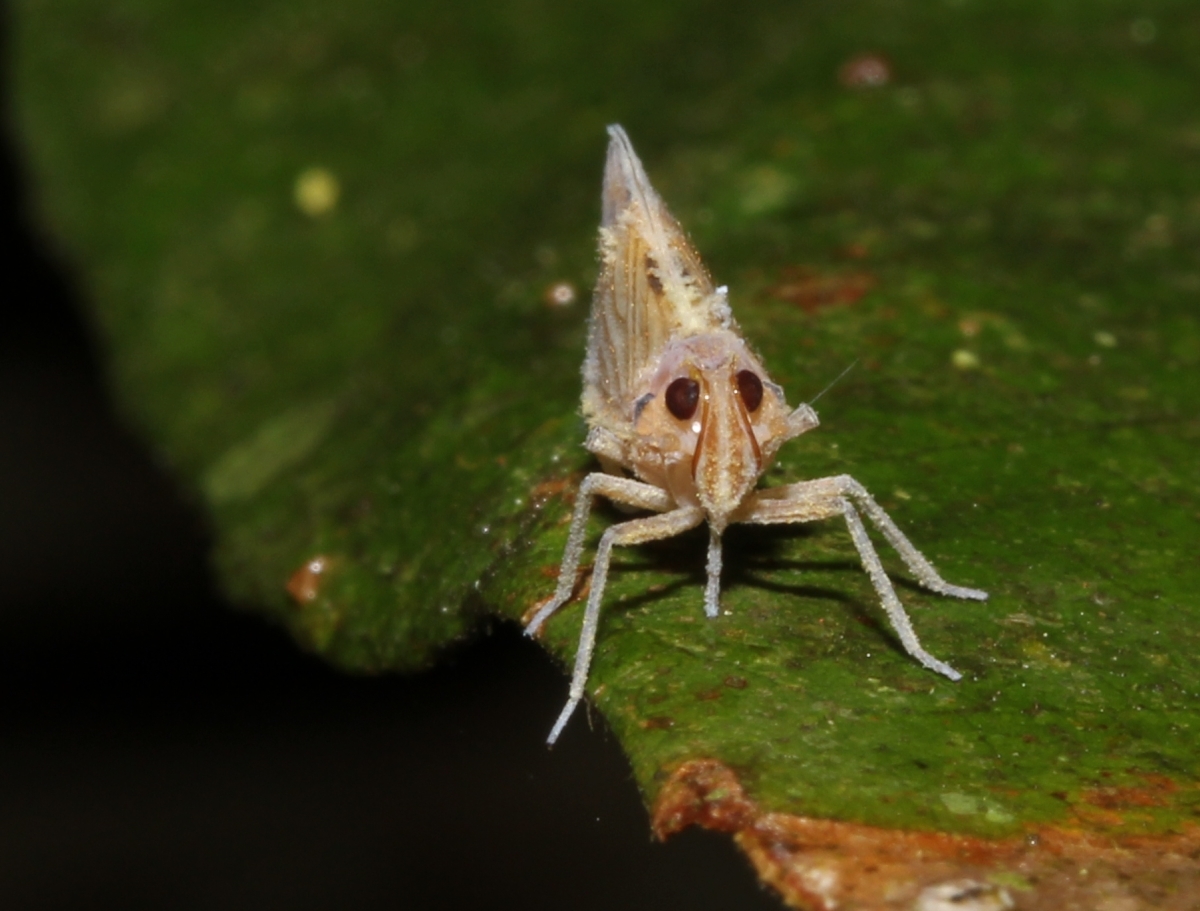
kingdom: Animalia
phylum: Arthropoda
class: Insecta
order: Hemiptera
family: Achilixiidae
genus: Bebaiotes
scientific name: Bebaiotes
